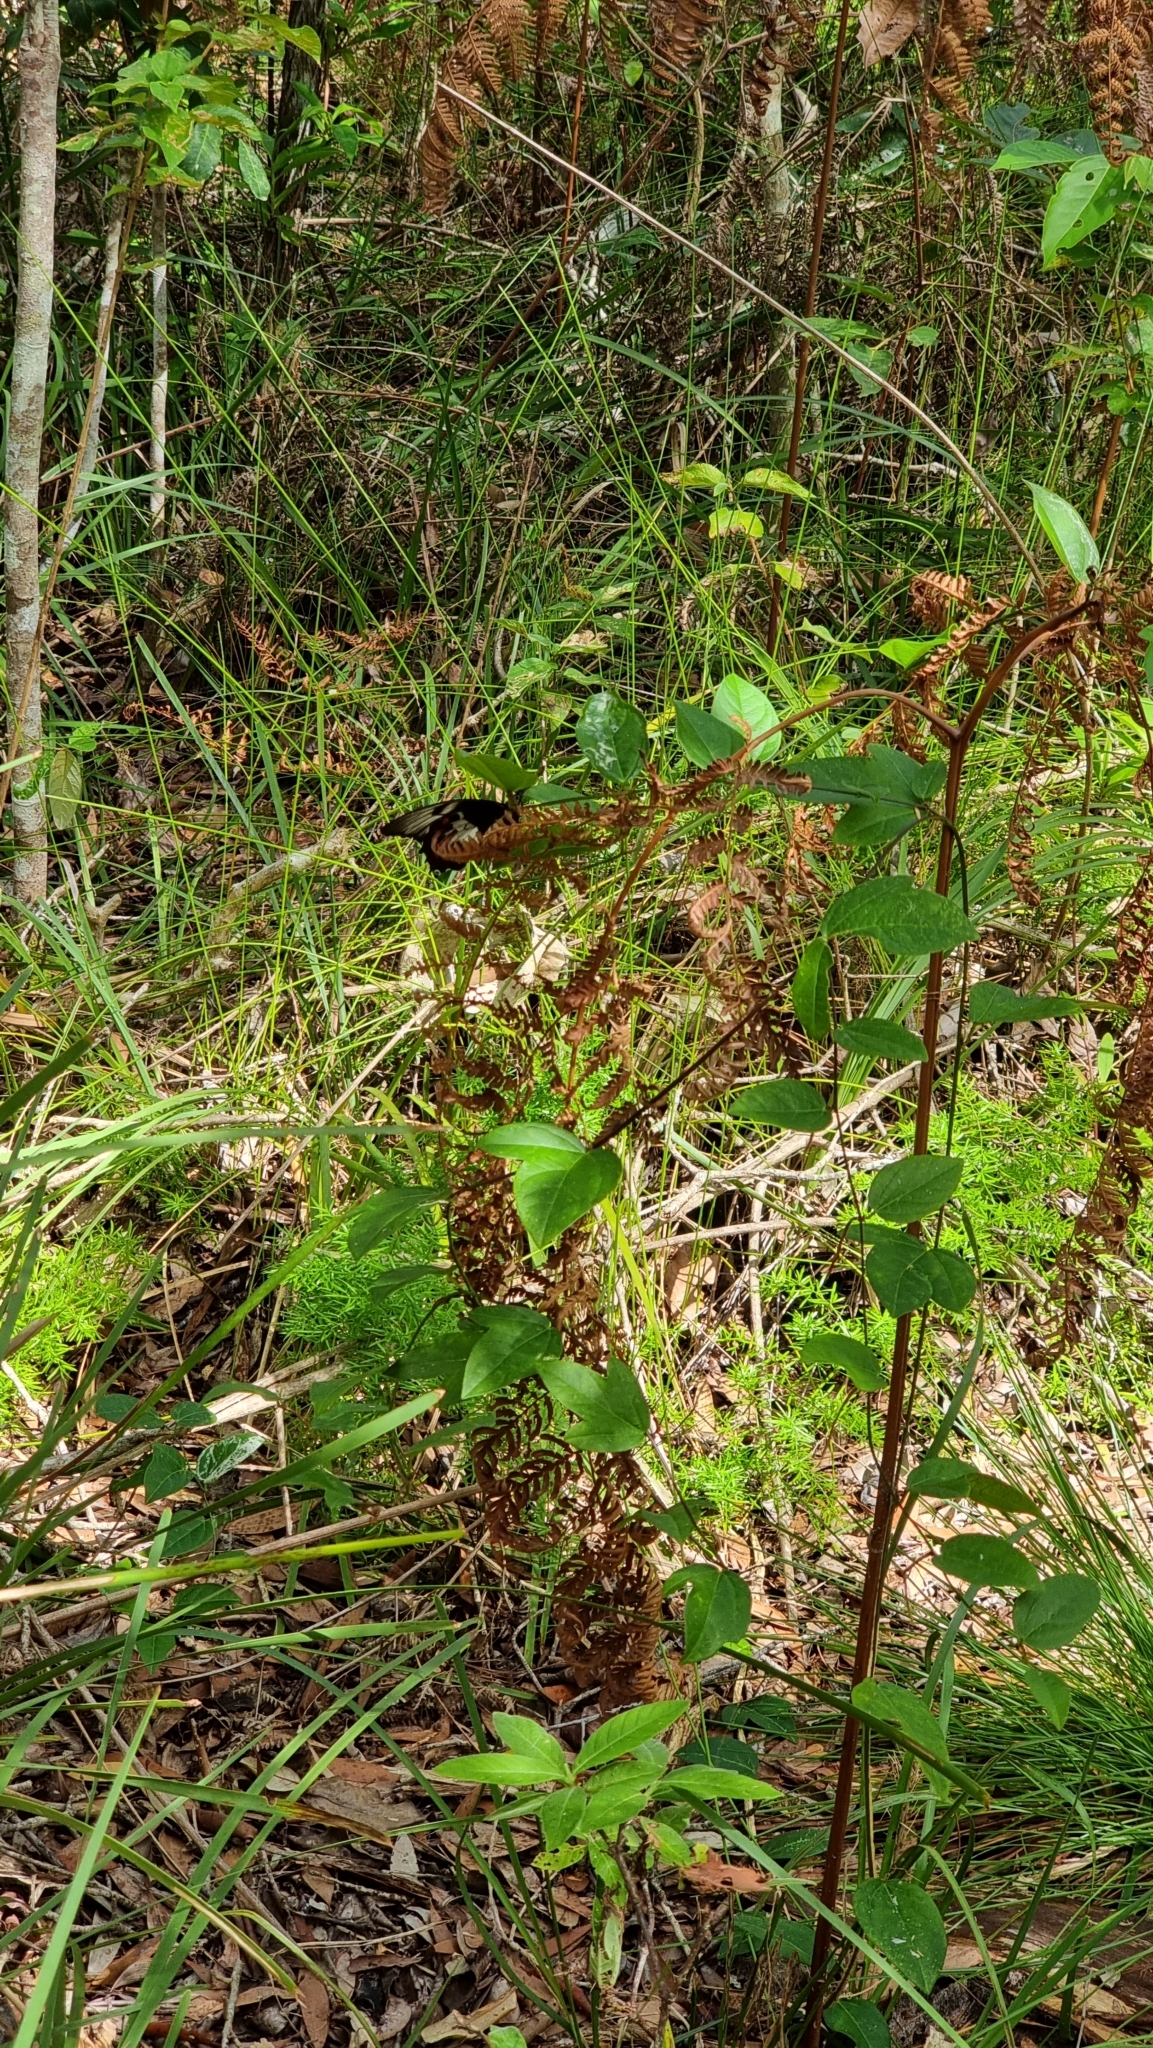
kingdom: Animalia
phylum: Arthropoda
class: Insecta
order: Lepidoptera
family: Papilionidae
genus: Papilio
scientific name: Papilio aegeus
